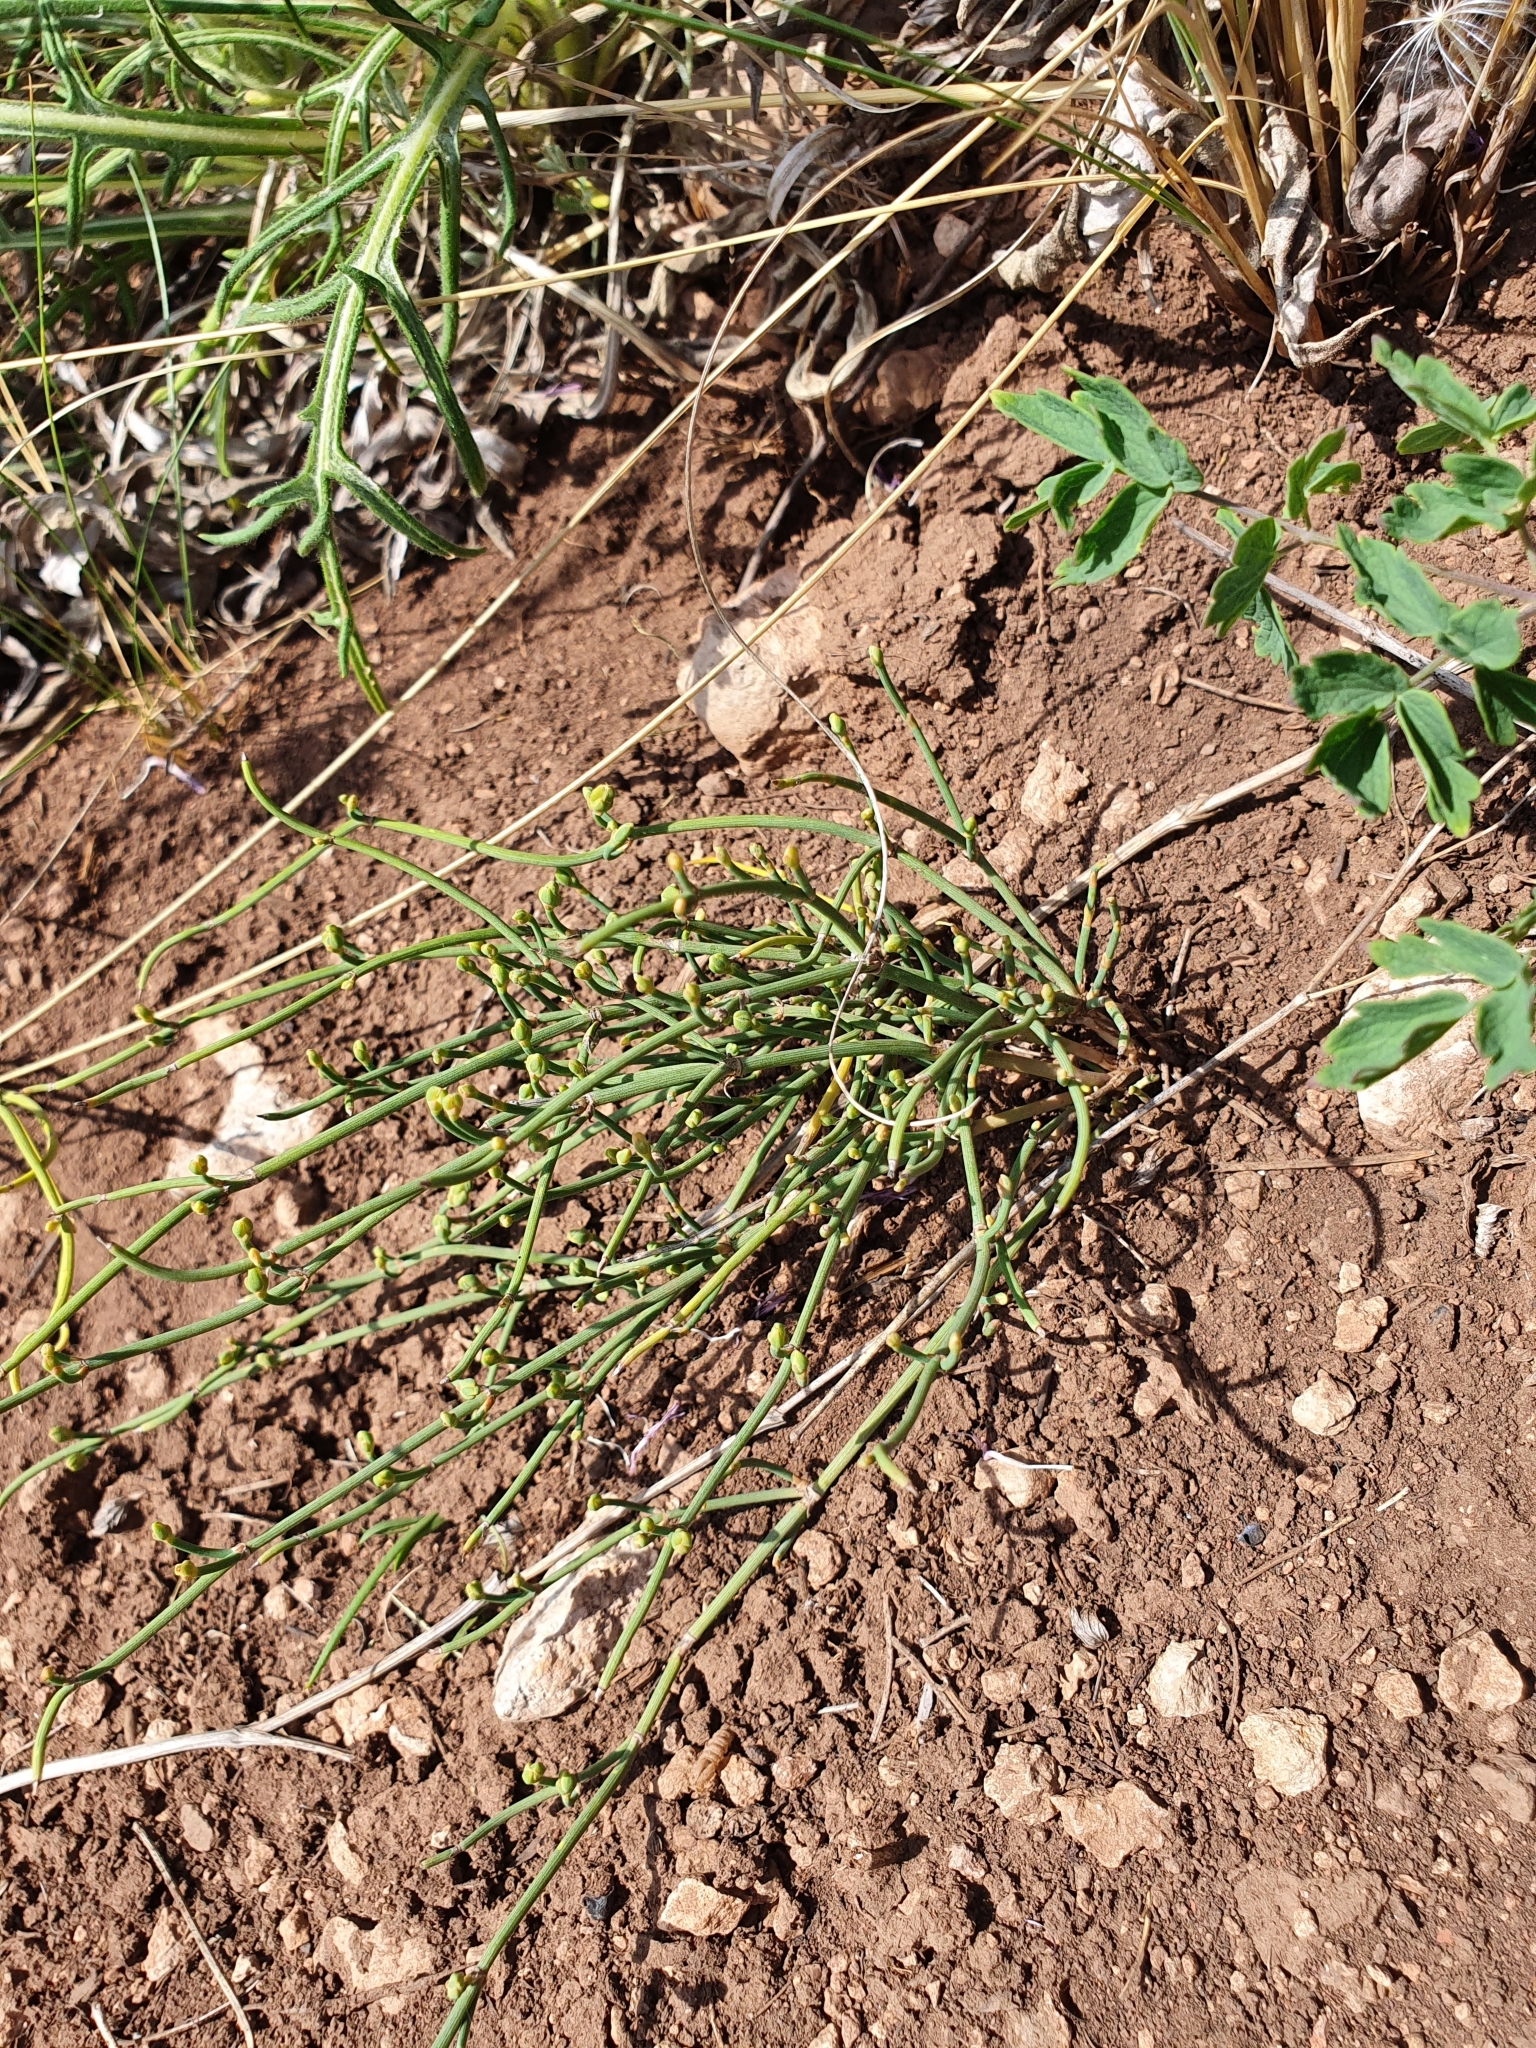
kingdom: Plantae
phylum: Tracheophyta
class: Gnetopsida
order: Ephedrales
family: Ephedraceae
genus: Ephedra
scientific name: Ephedra distachya
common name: Sea grape
